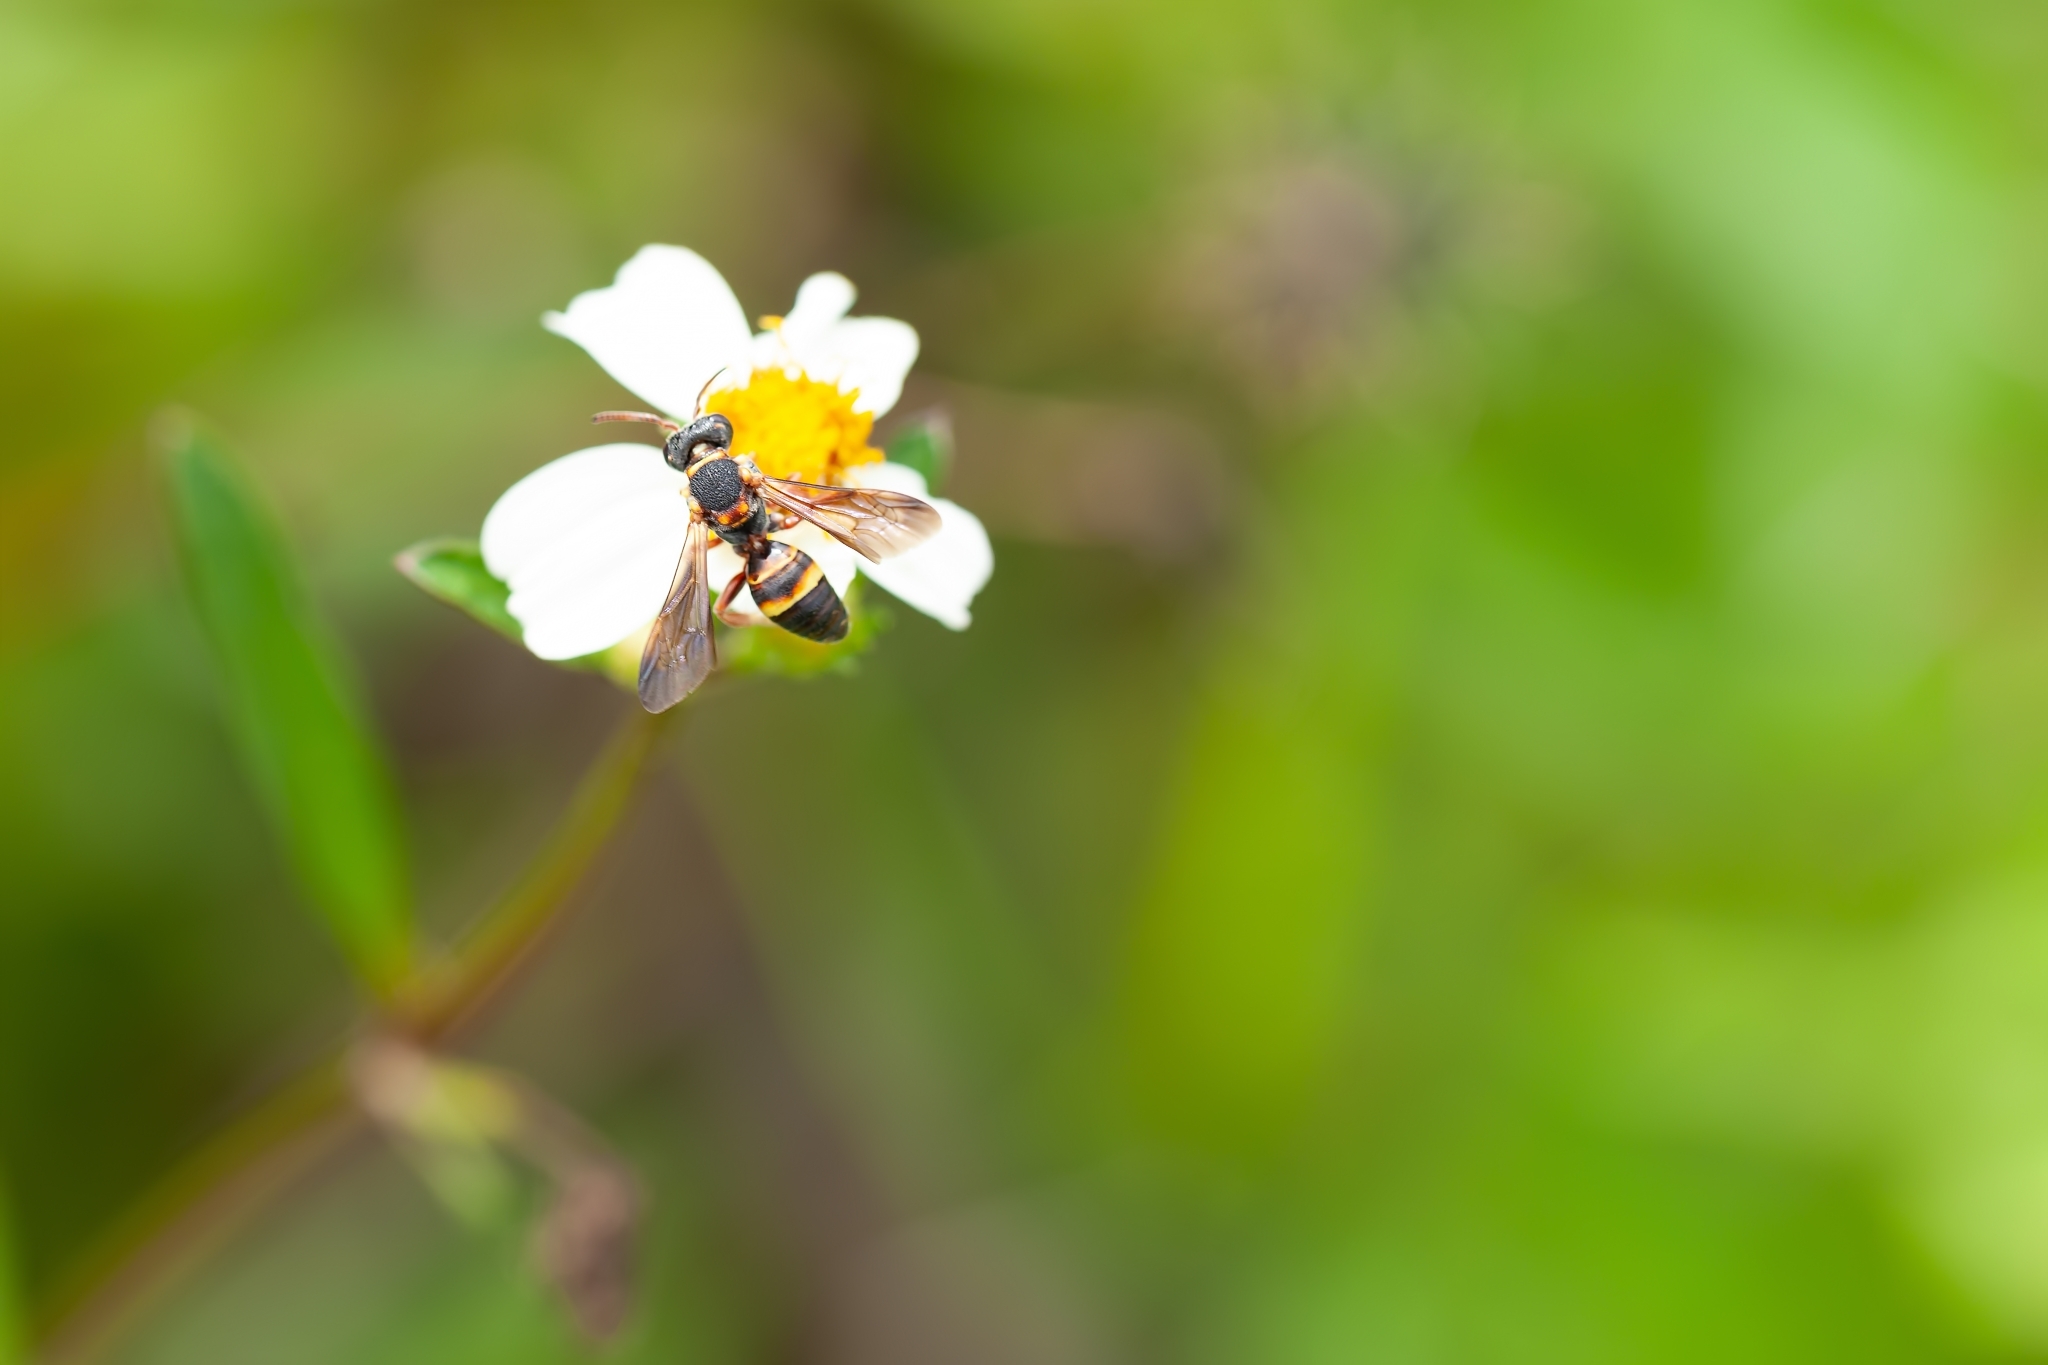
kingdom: Animalia
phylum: Arthropoda
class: Insecta
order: Hymenoptera
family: Apidae
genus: Nomada
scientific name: Nomada fervida
